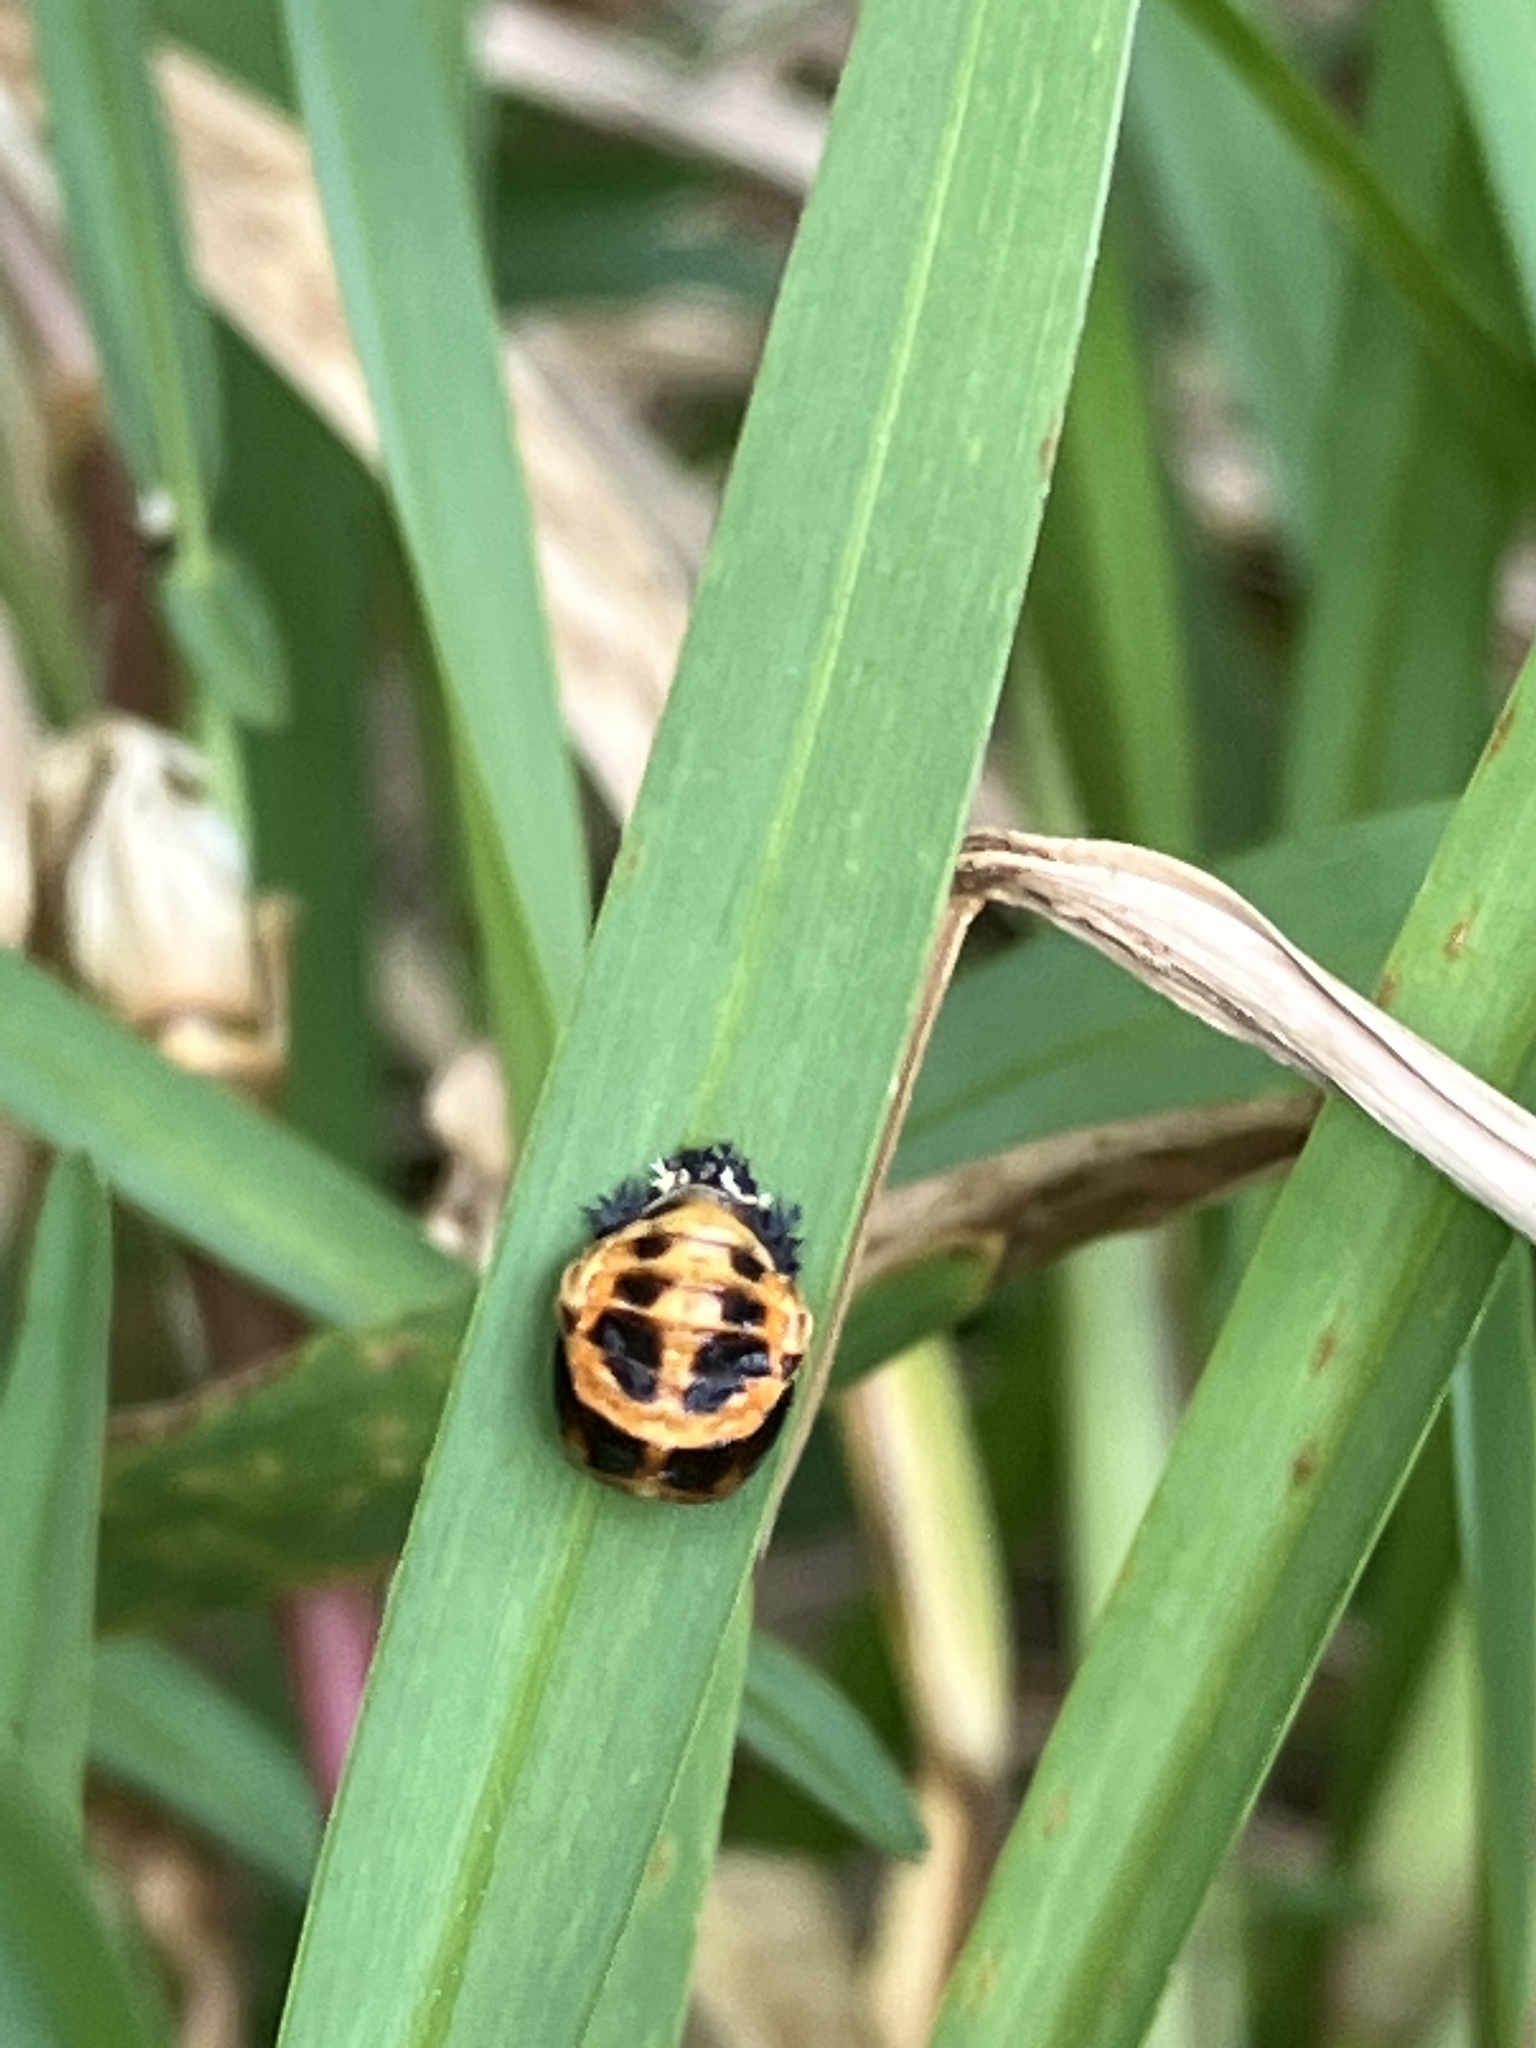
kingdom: Animalia
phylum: Arthropoda
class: Insecta
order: Coleoptera
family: Coccinellidae
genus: Harmonia
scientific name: Harmonia axyridis
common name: Harlequin ladybird
